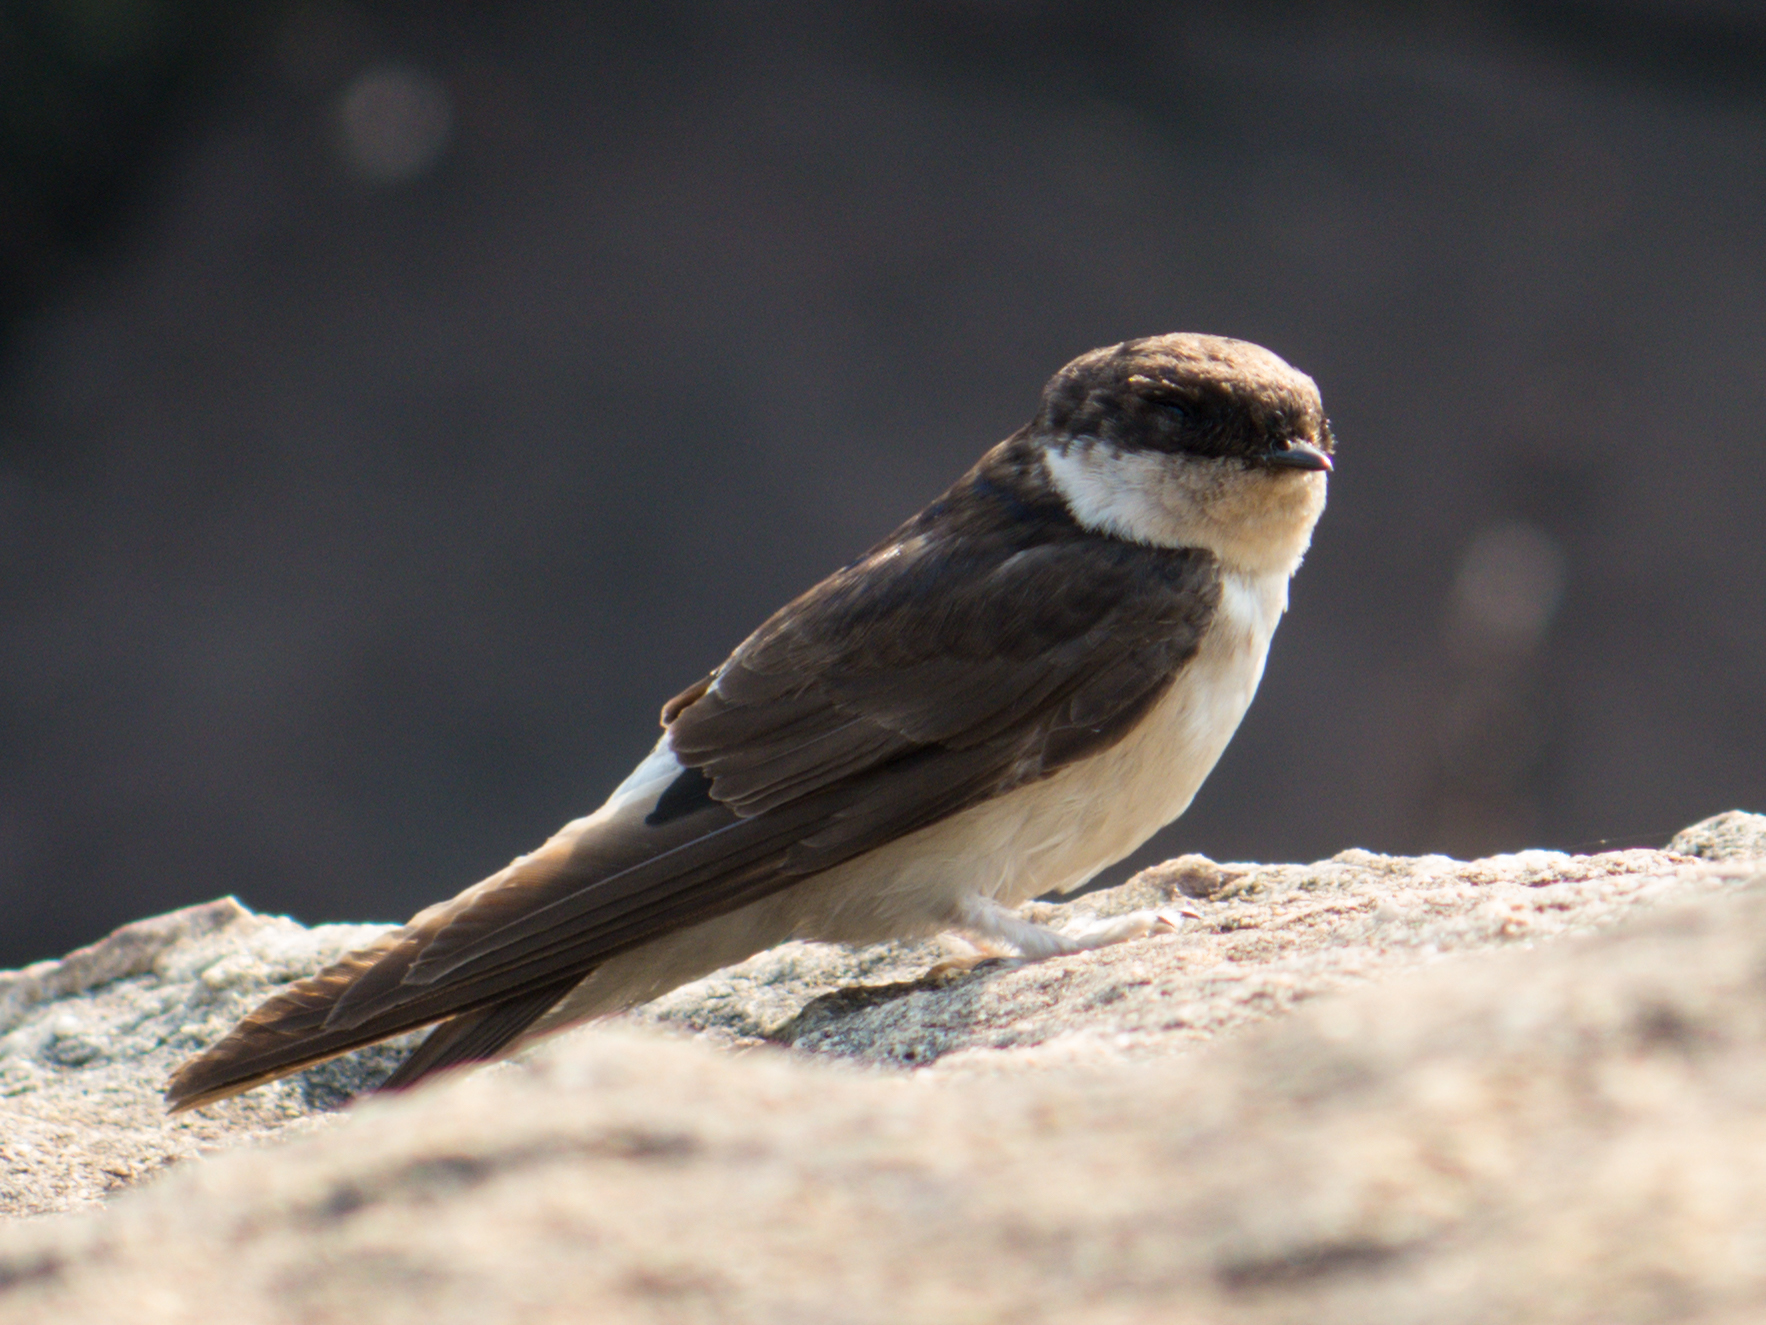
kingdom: Animalia
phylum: Chordata
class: Aves
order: Passeriformes
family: Hirundinidae
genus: Delichon
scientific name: Delichon dasypus
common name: Asian house martin
